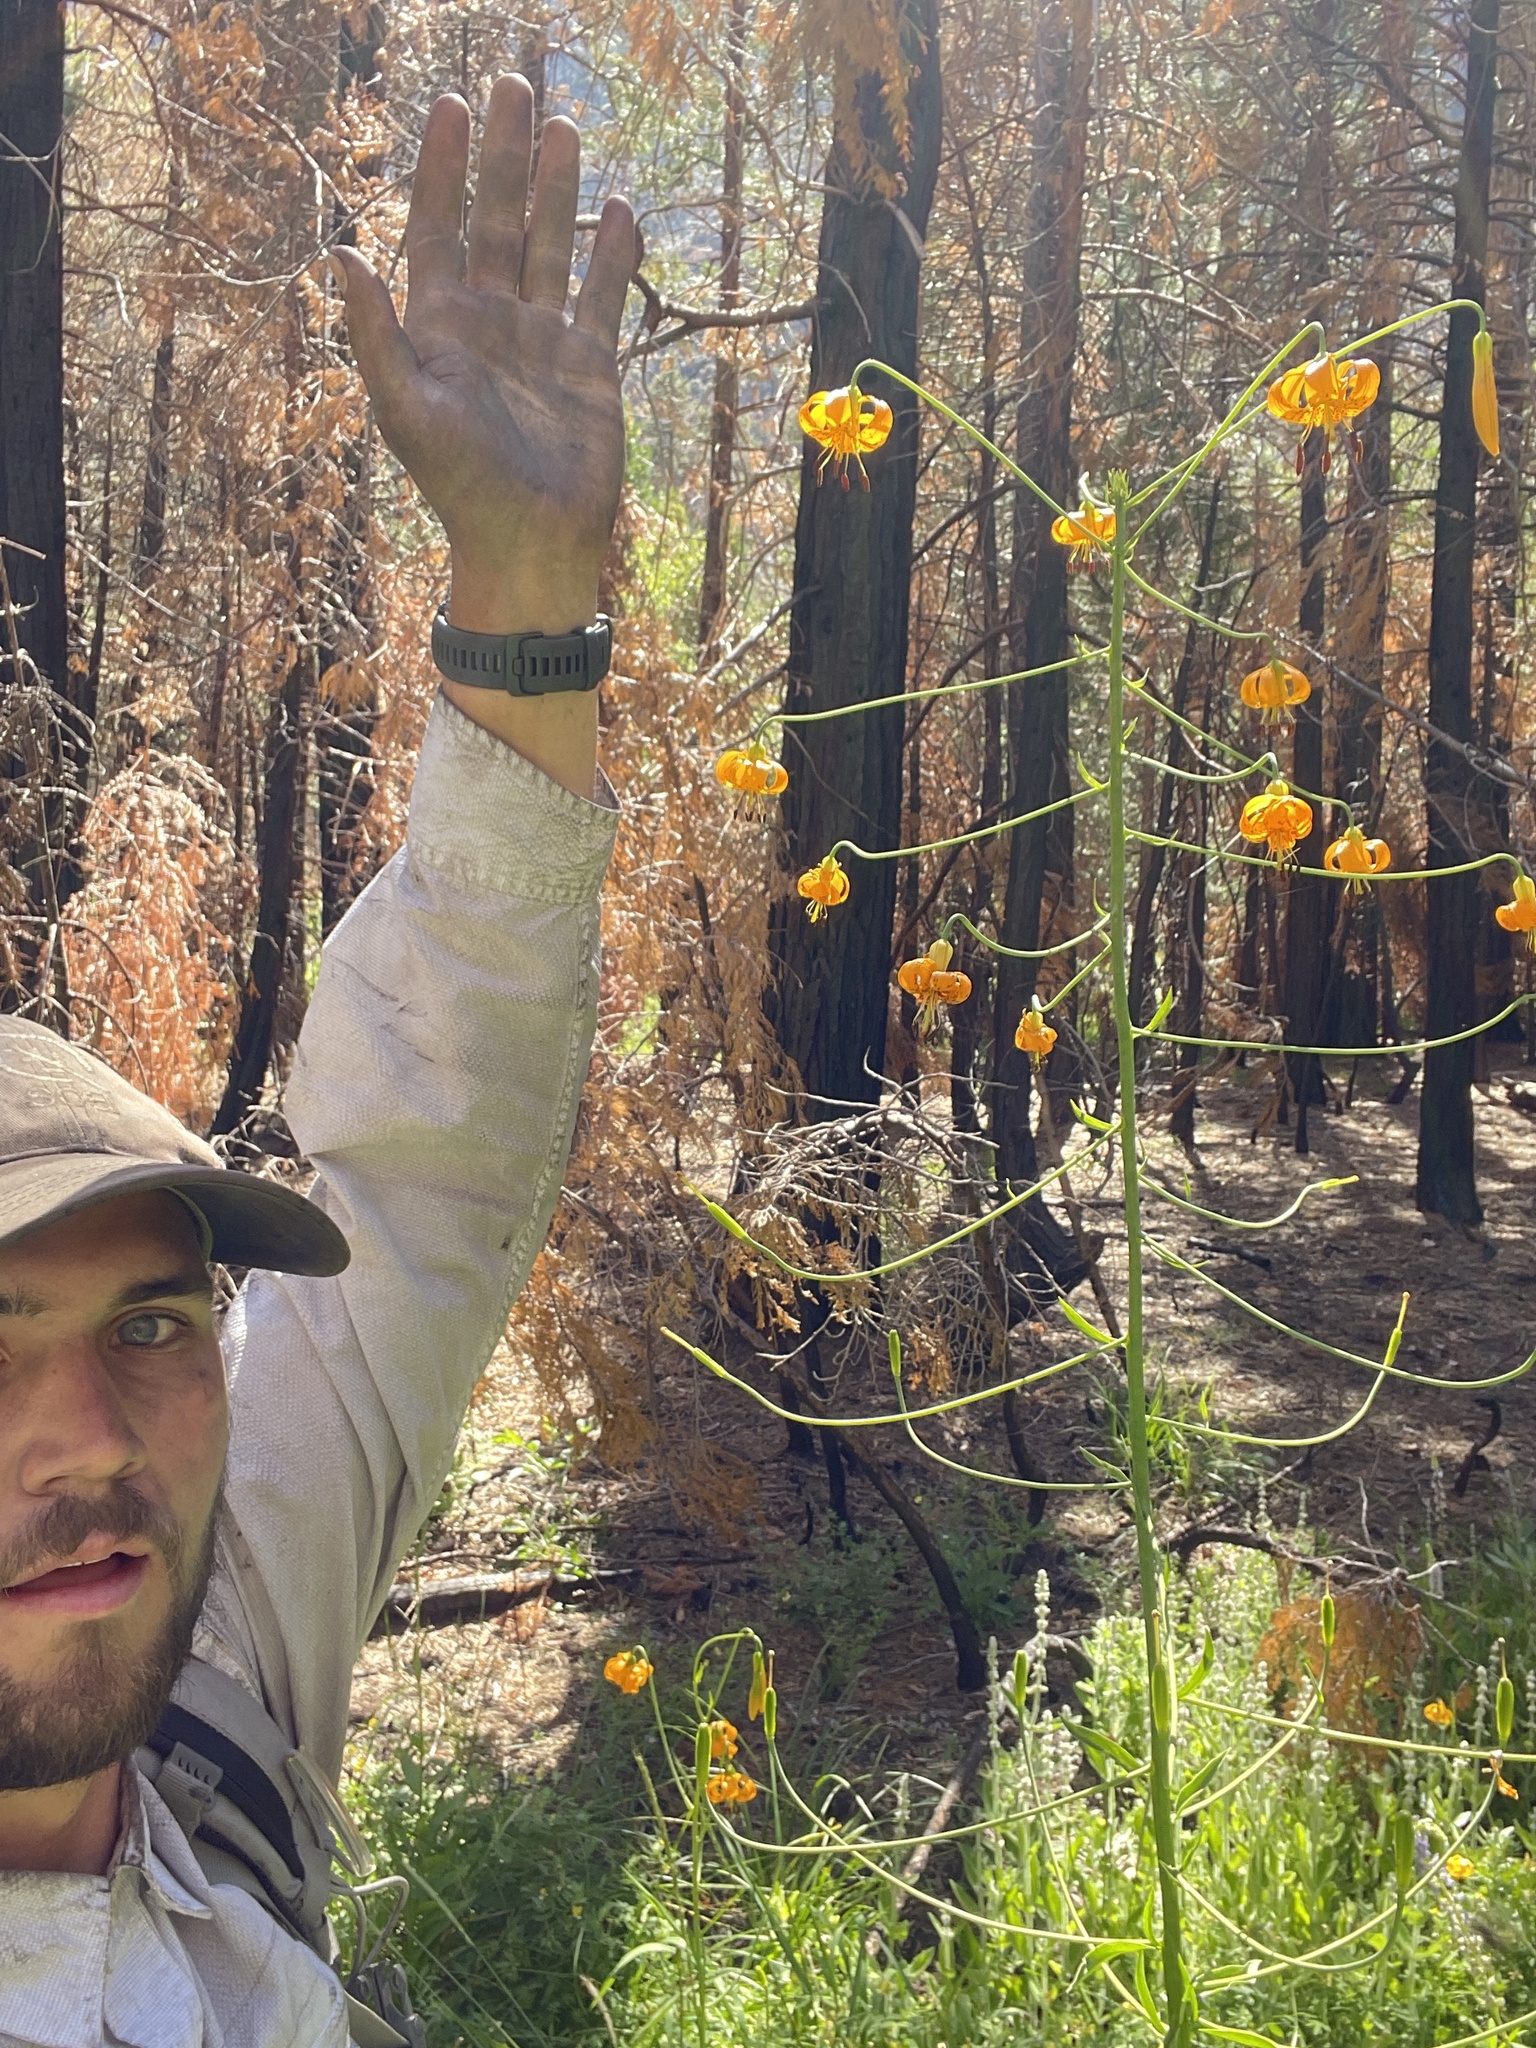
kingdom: Plantae
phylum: Tracheophyta
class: Liliopsida
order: Liliales
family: Liliaceae
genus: Lilium
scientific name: Lilium kelleyanum
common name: Kelley's lily
